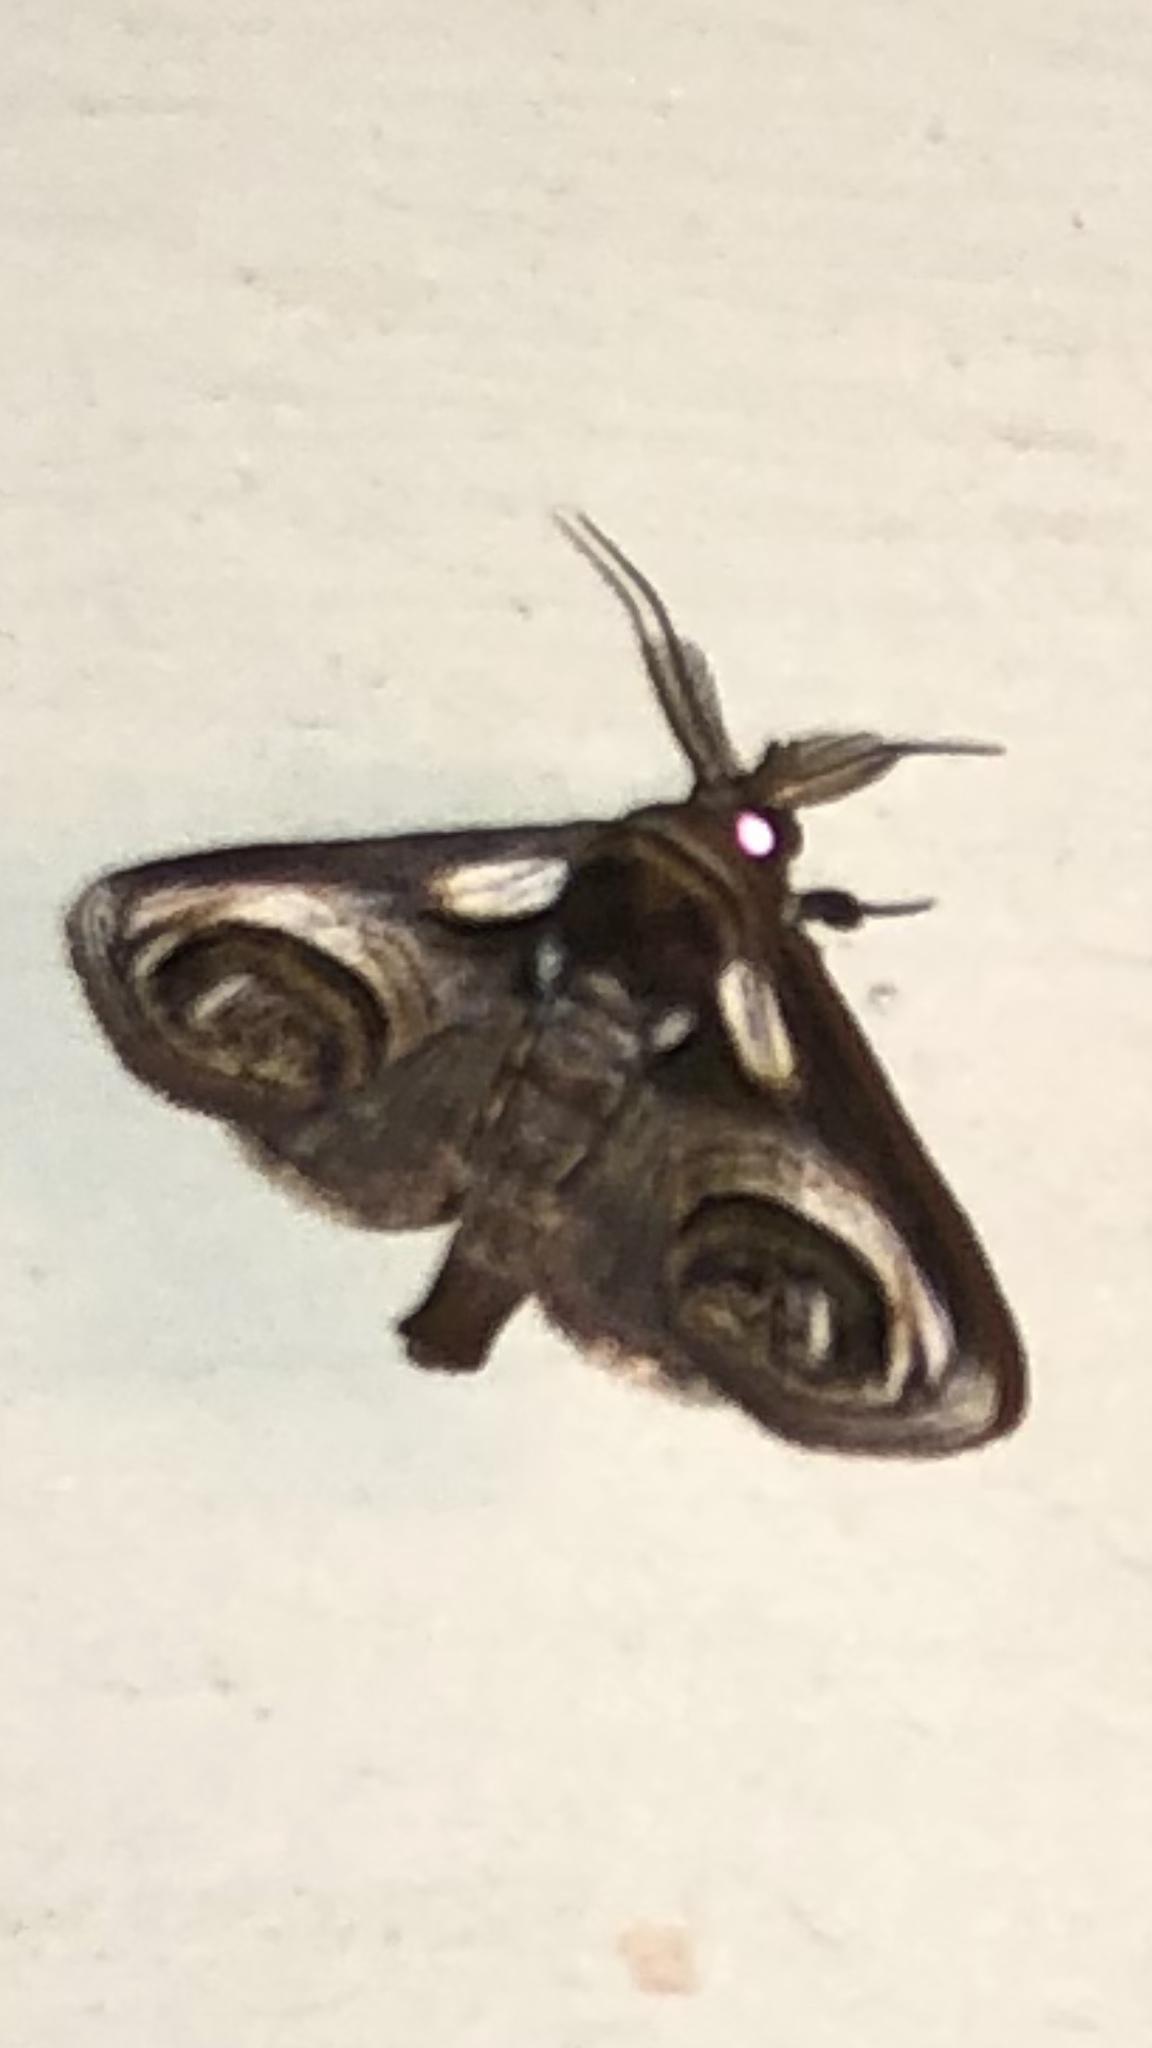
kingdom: Animalia
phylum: Arthropoda
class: Insecta
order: Lepidoptera
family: Euteliidae
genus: Paectes
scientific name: Paectes oculatrix
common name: Eyed paectes moth
